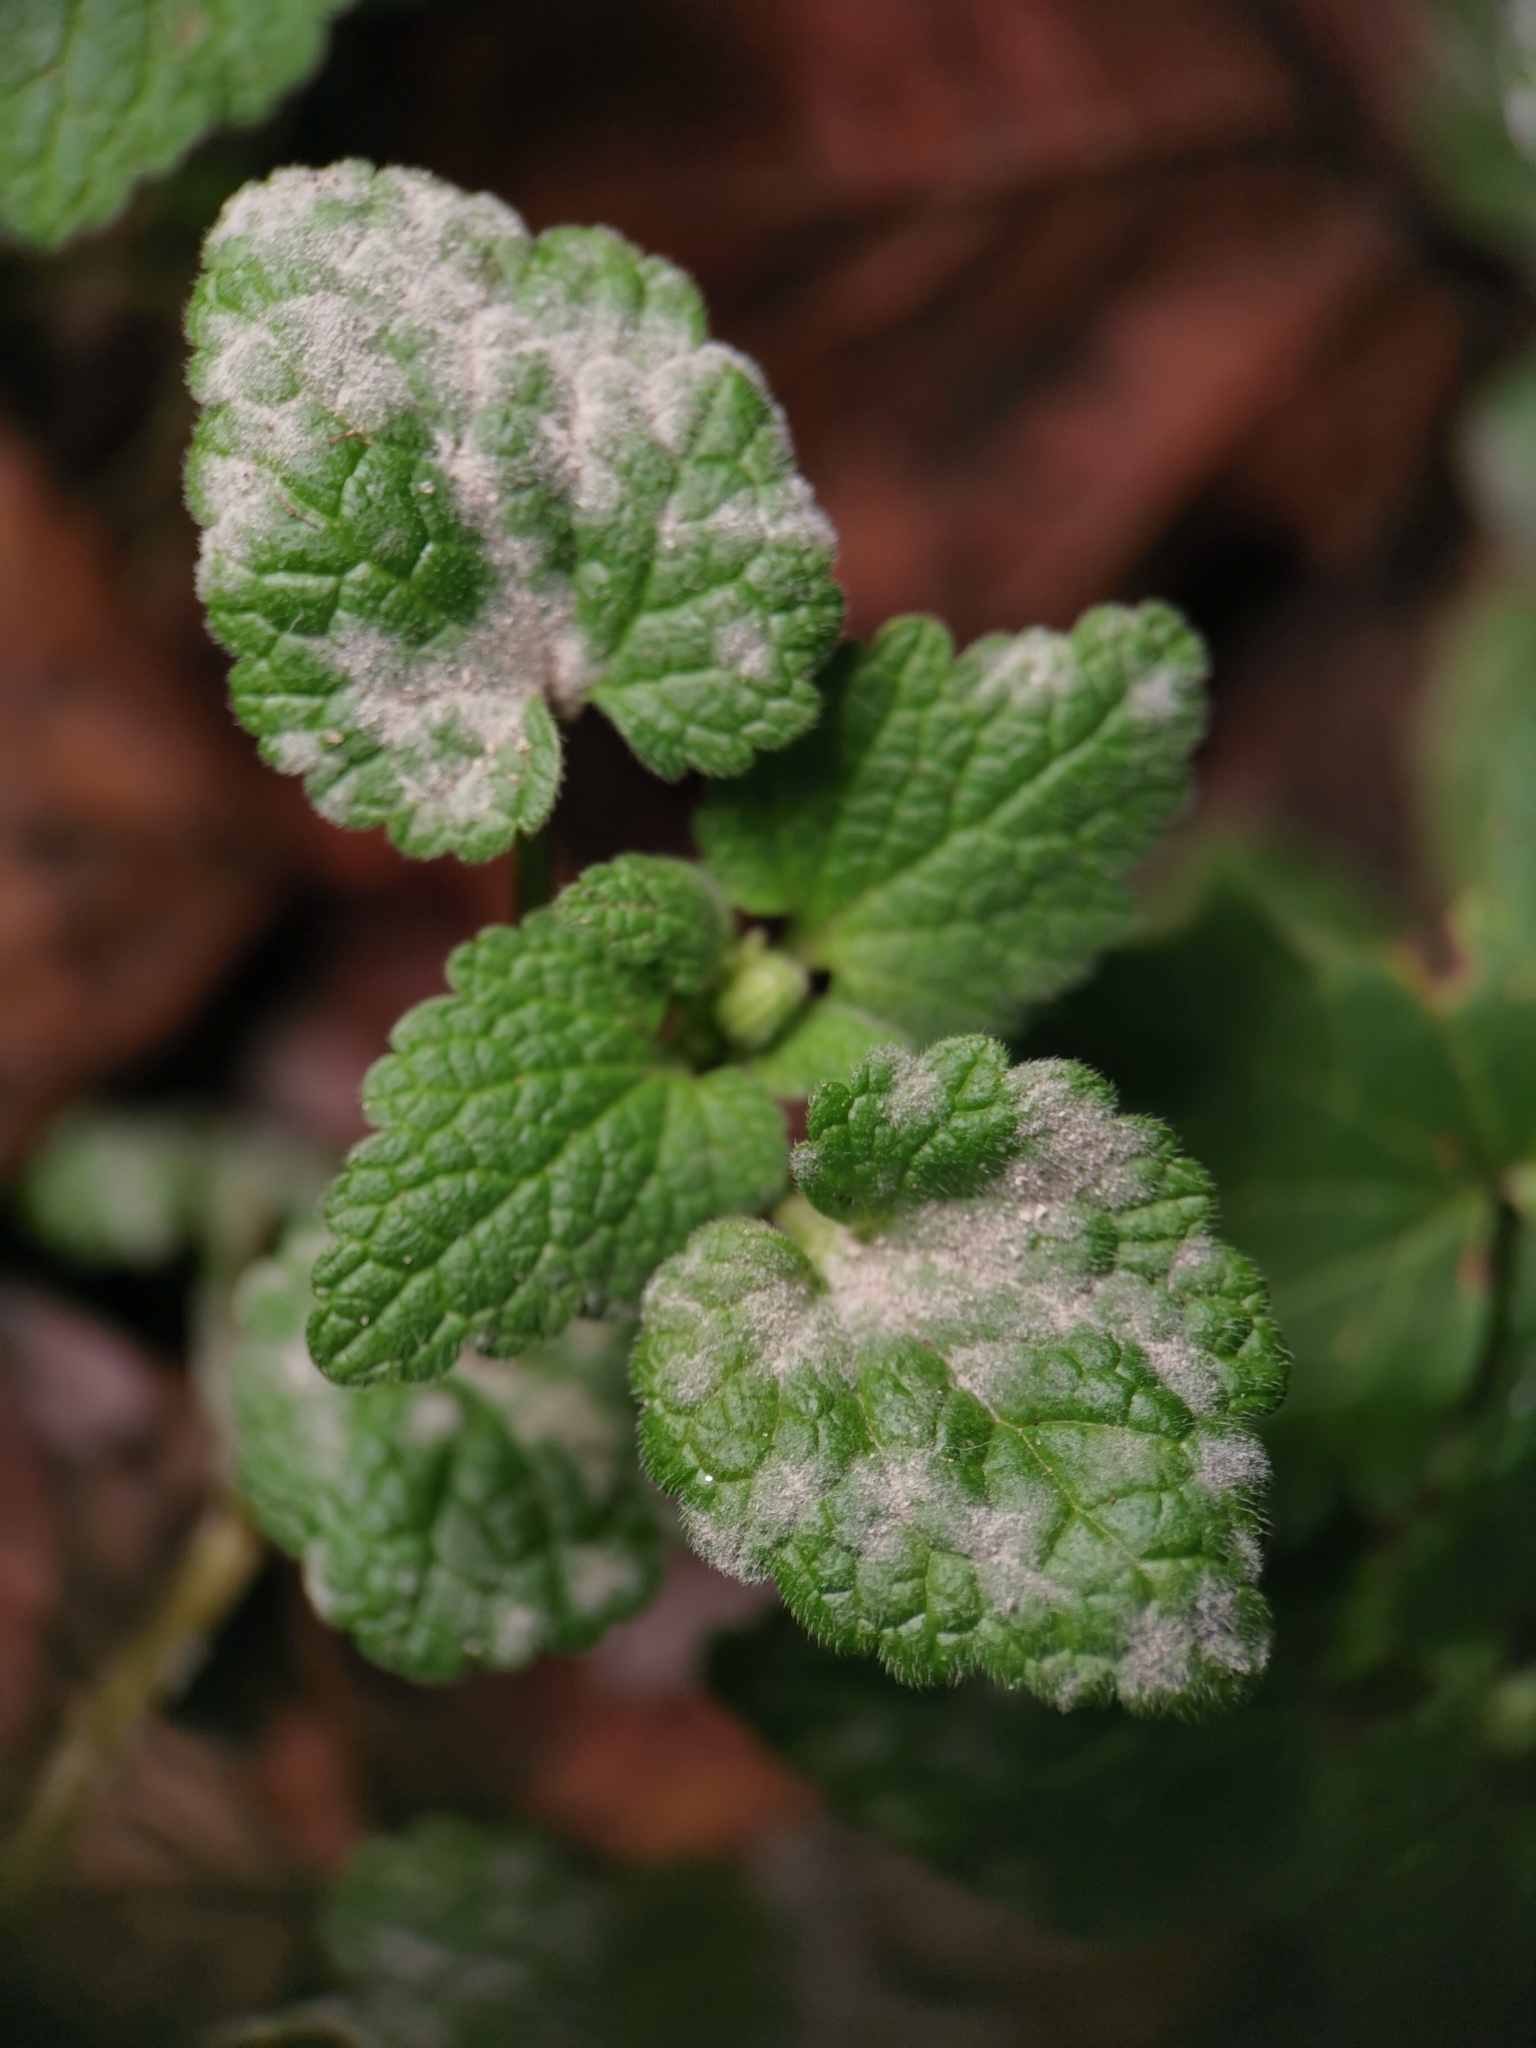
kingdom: Fungi
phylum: Ascomycota
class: Leotiomycetes
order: Helotiales
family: Erysiphaceae
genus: Neoerysiphe
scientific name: Neoerysiphe galeopsidis
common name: Mint mildew
